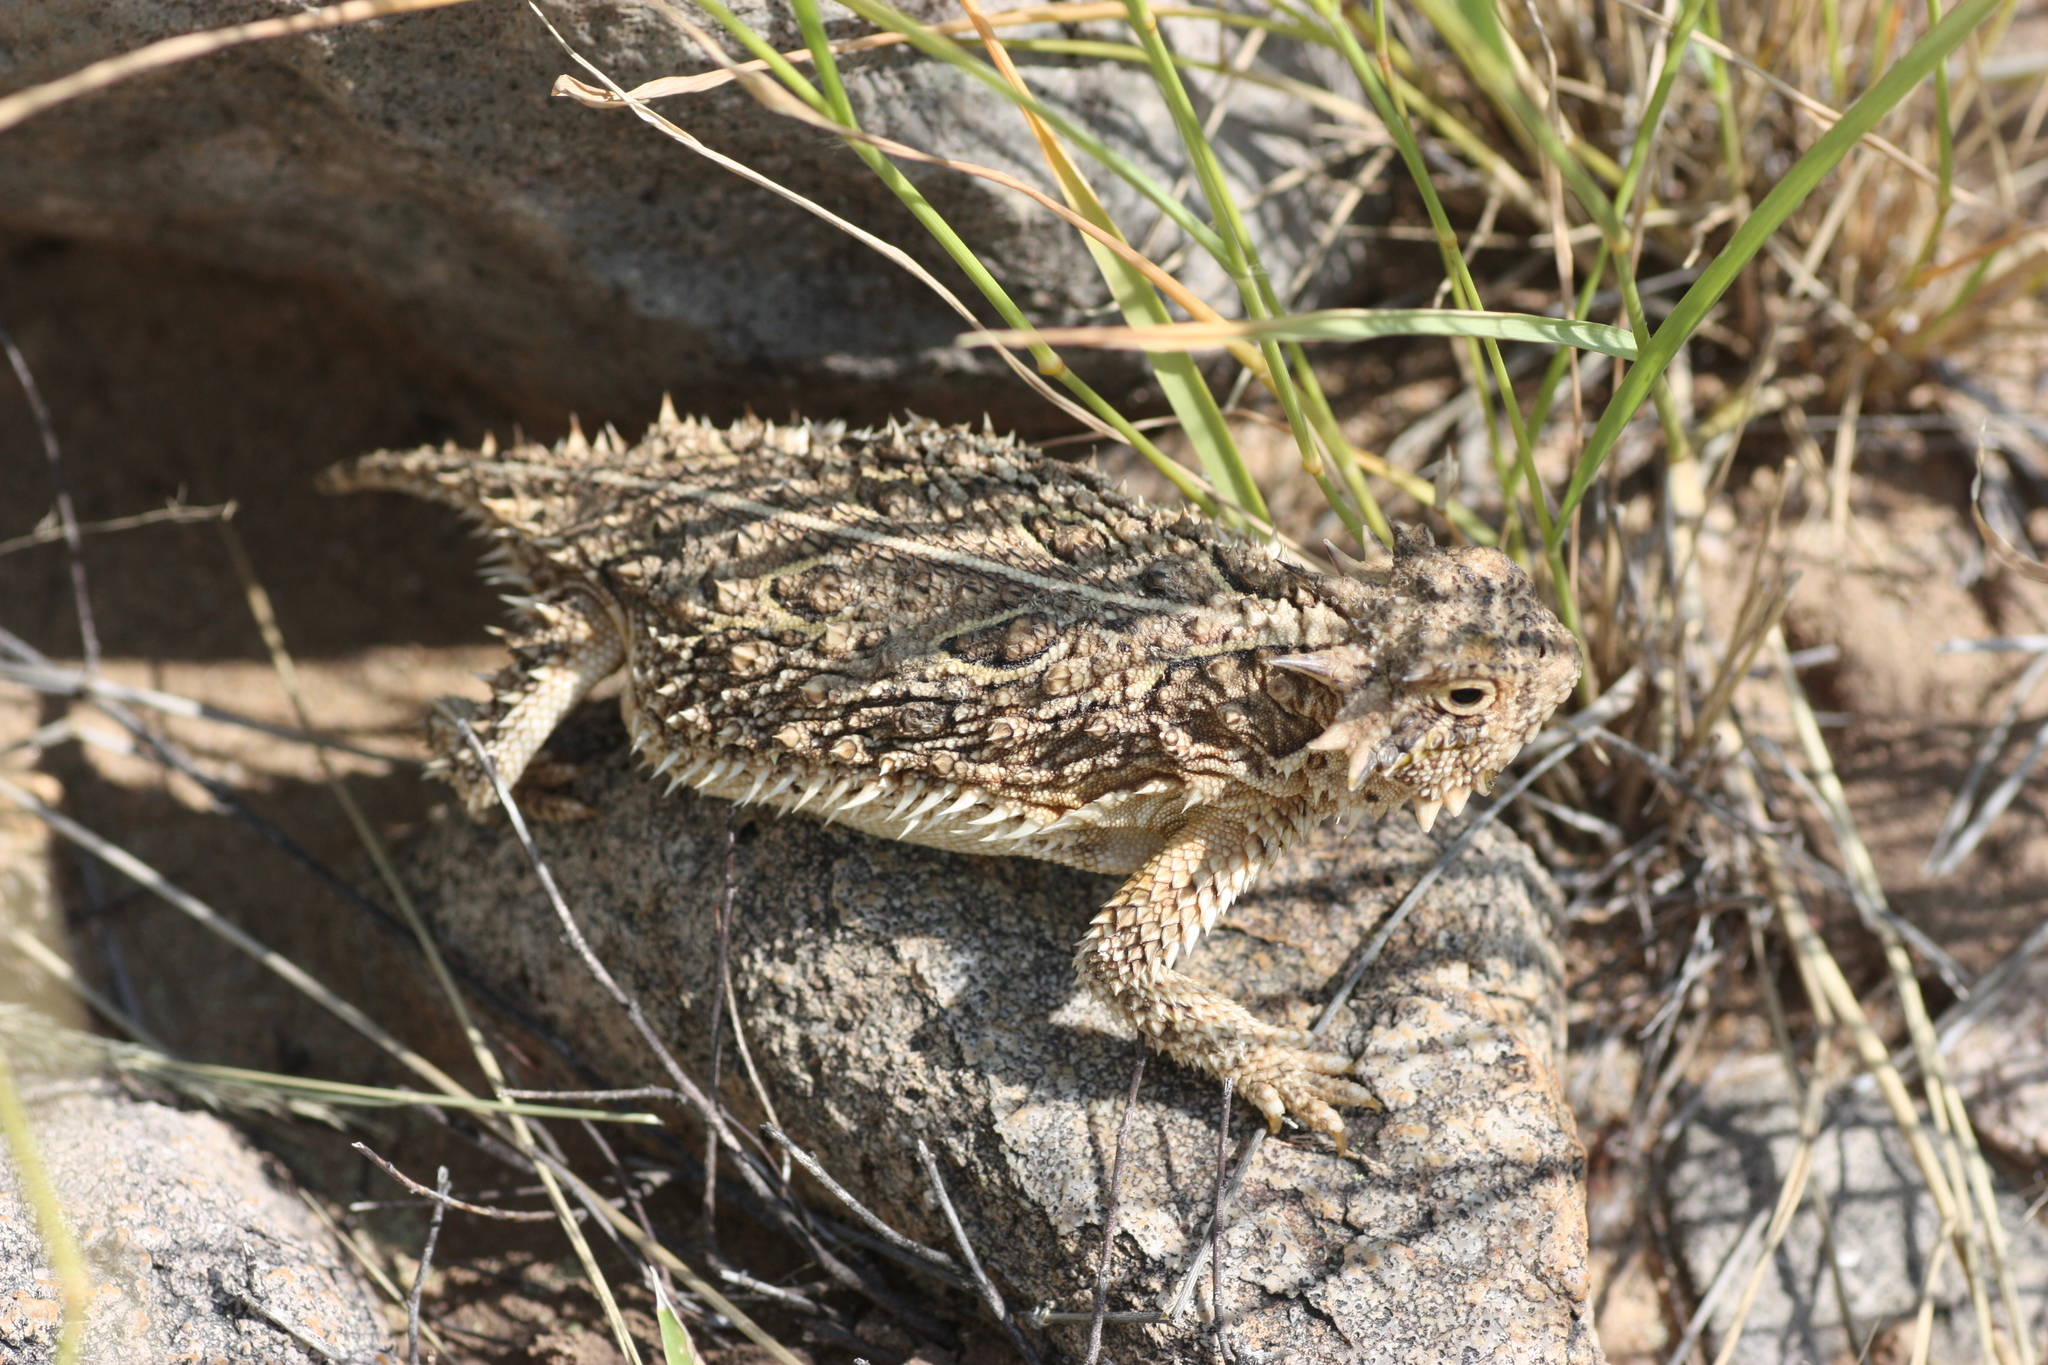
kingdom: Animalia
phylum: Chordata
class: Squamata
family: Phrynosomatidae
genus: Phrynosoma
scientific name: Phrynosoma cornutum
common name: Texas horned lizard
